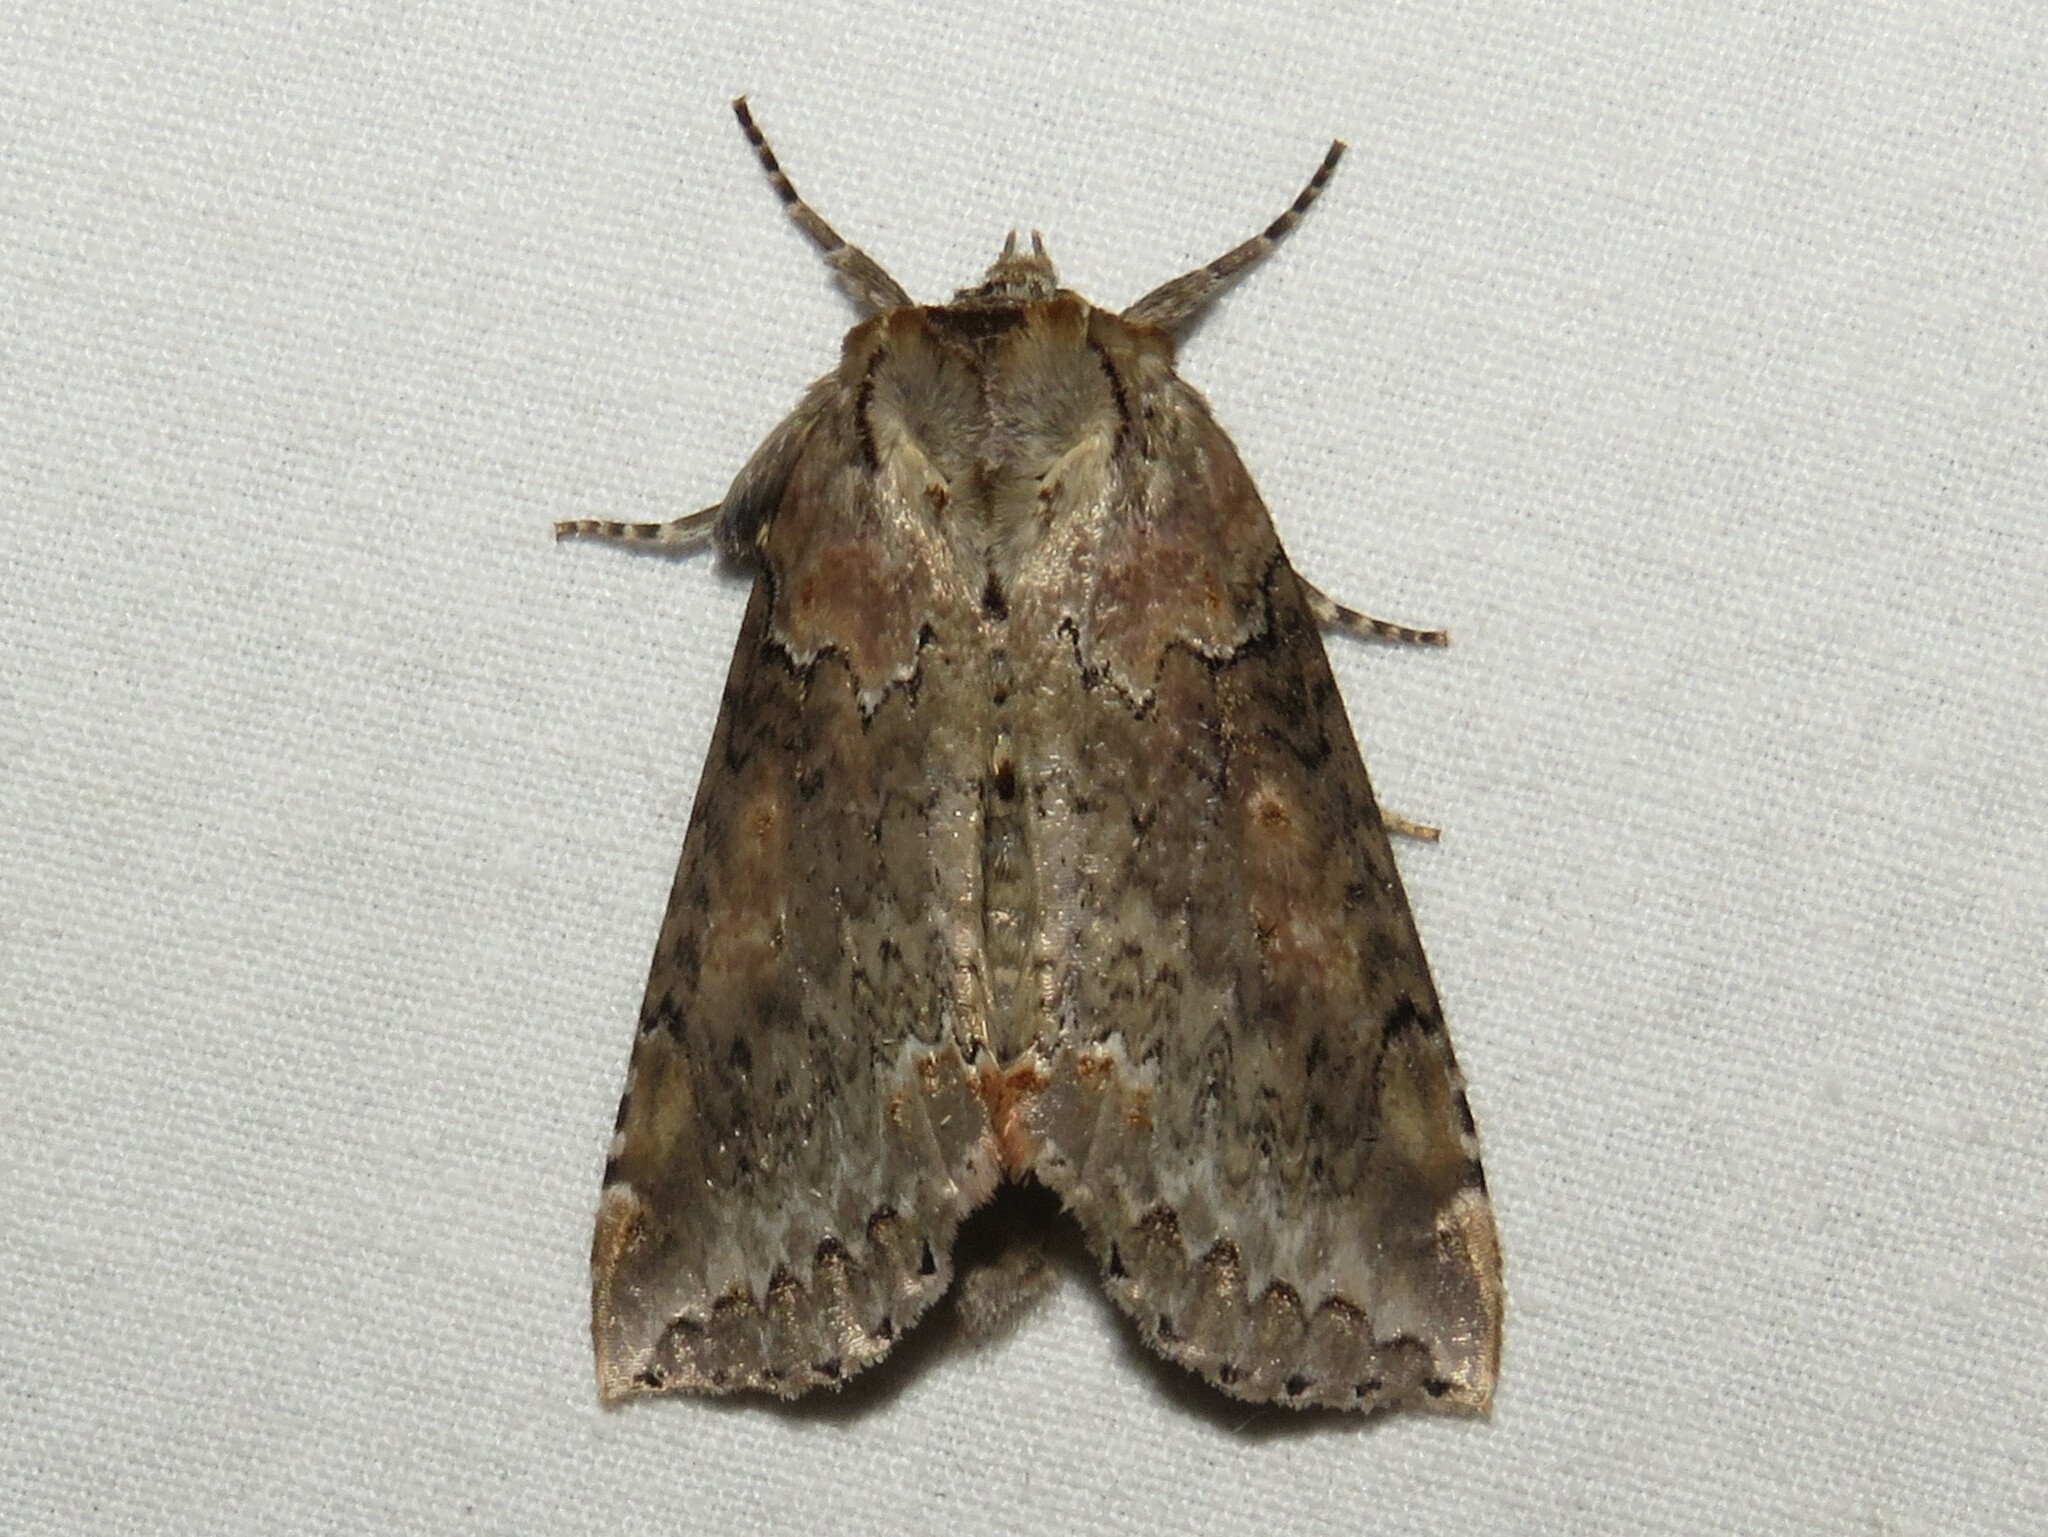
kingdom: Animalia
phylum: Arthropoda
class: Insecta
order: Lepidoptera
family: Drepanidae
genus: Pseudothyatira
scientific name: Pseudothyatira cymatophoroides
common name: Tufted thyatirid moth
